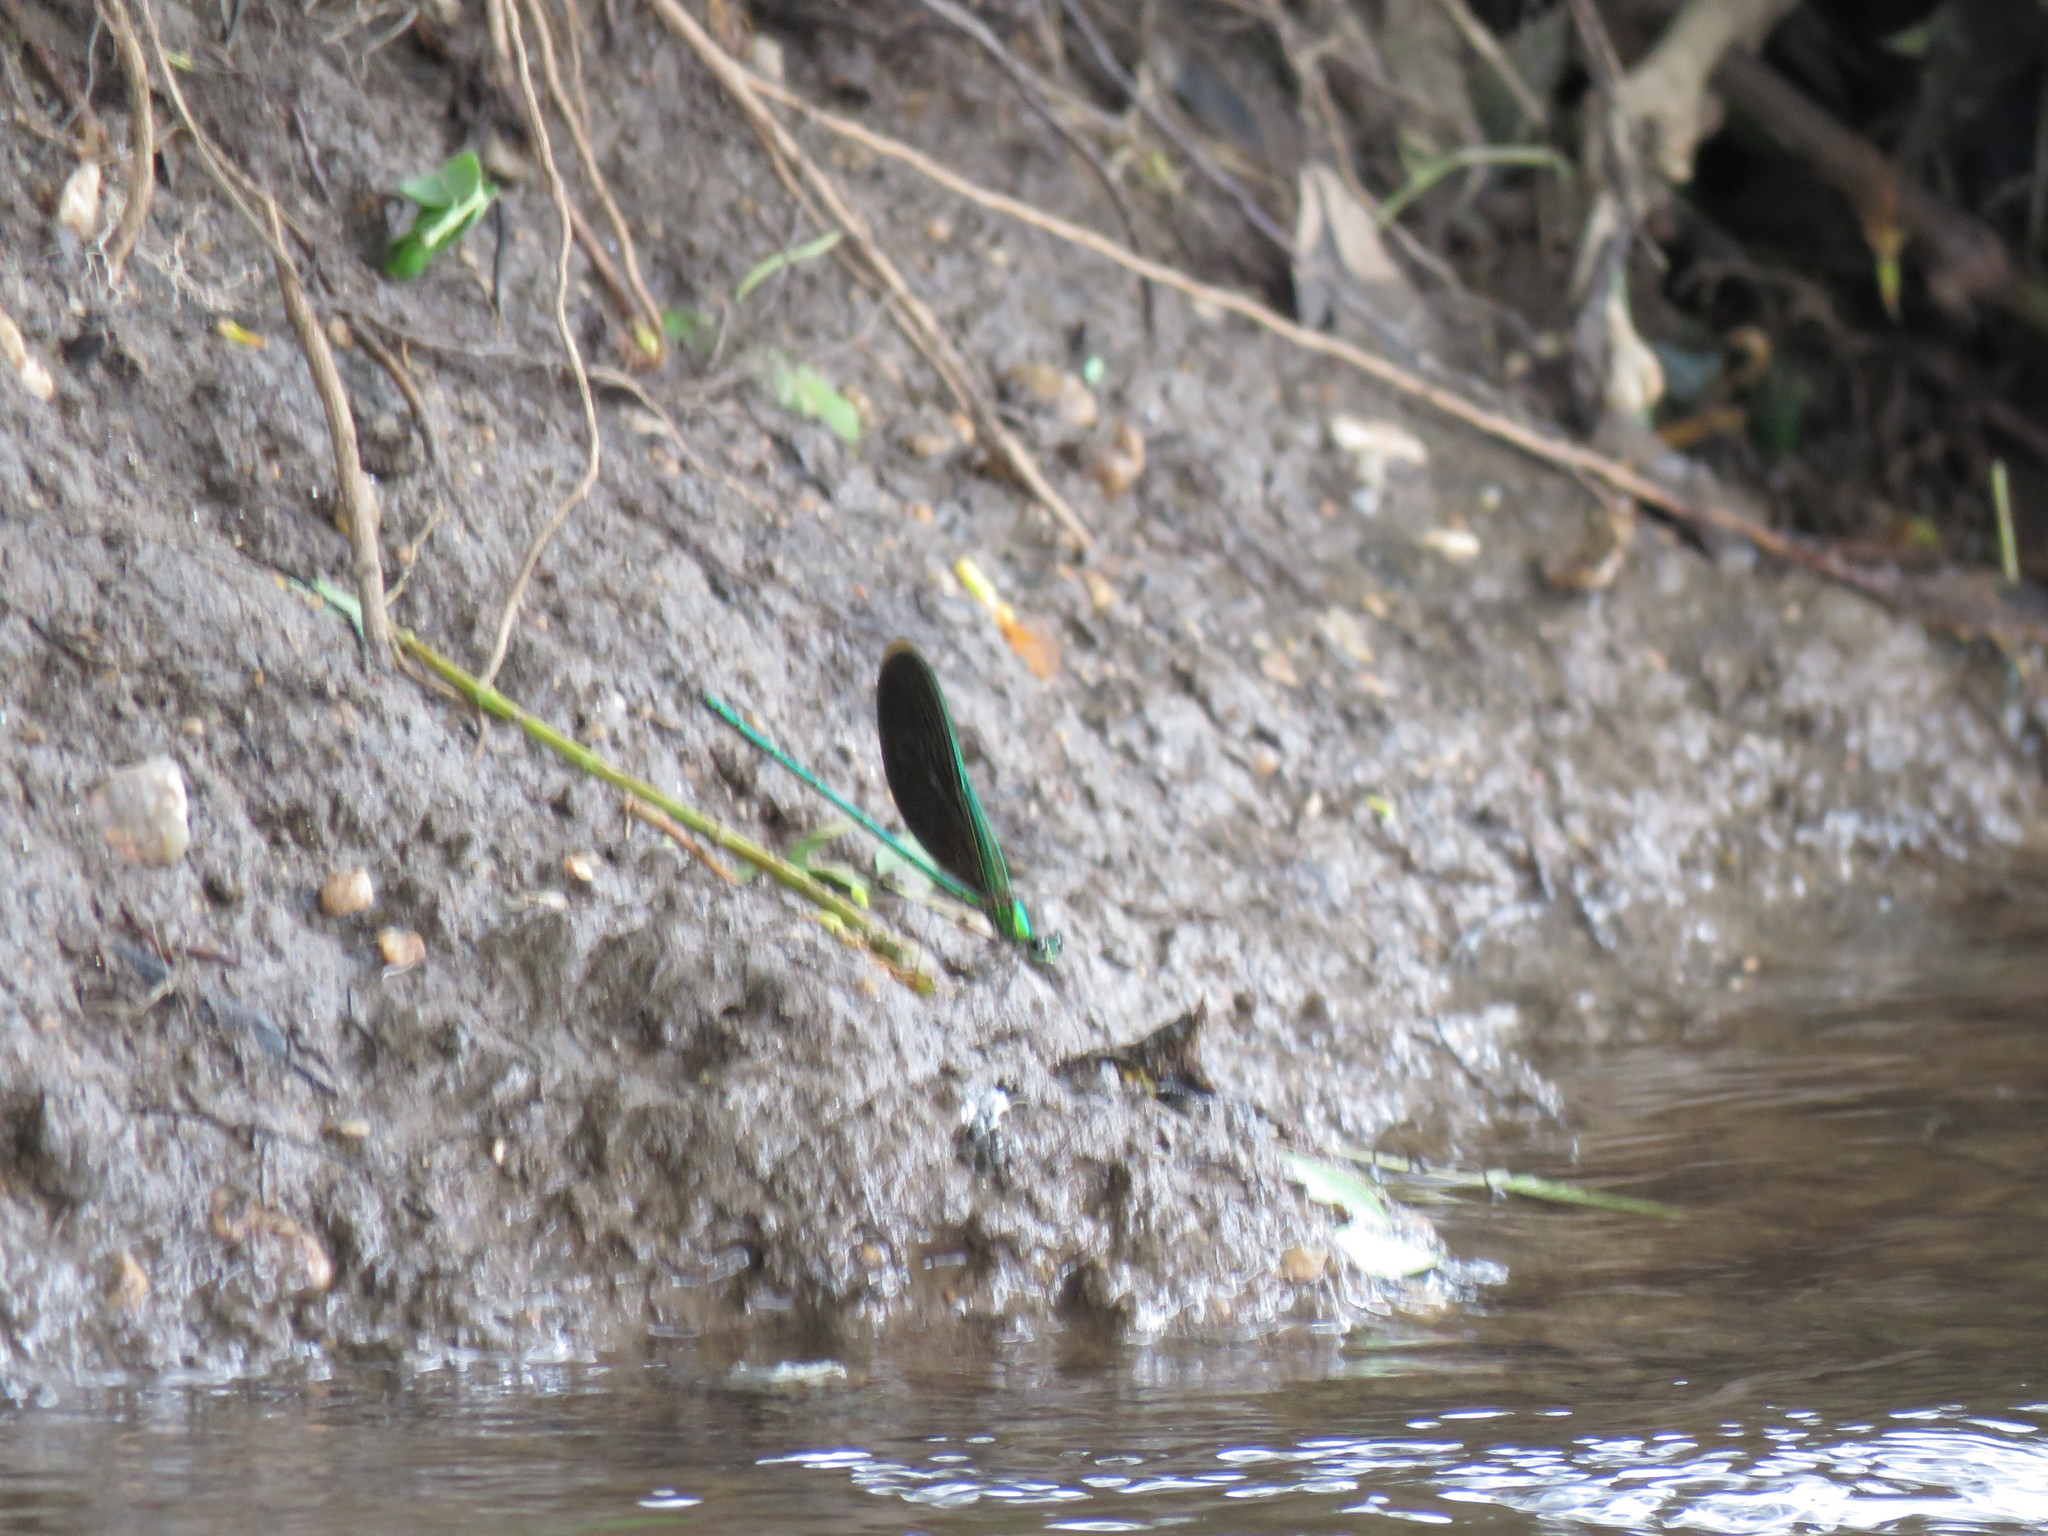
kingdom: Animalia
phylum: Arthropoda
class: Insecta
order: Odonata
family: Calopterygidae
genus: Neurobasis
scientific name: Neurobasis chinensis
